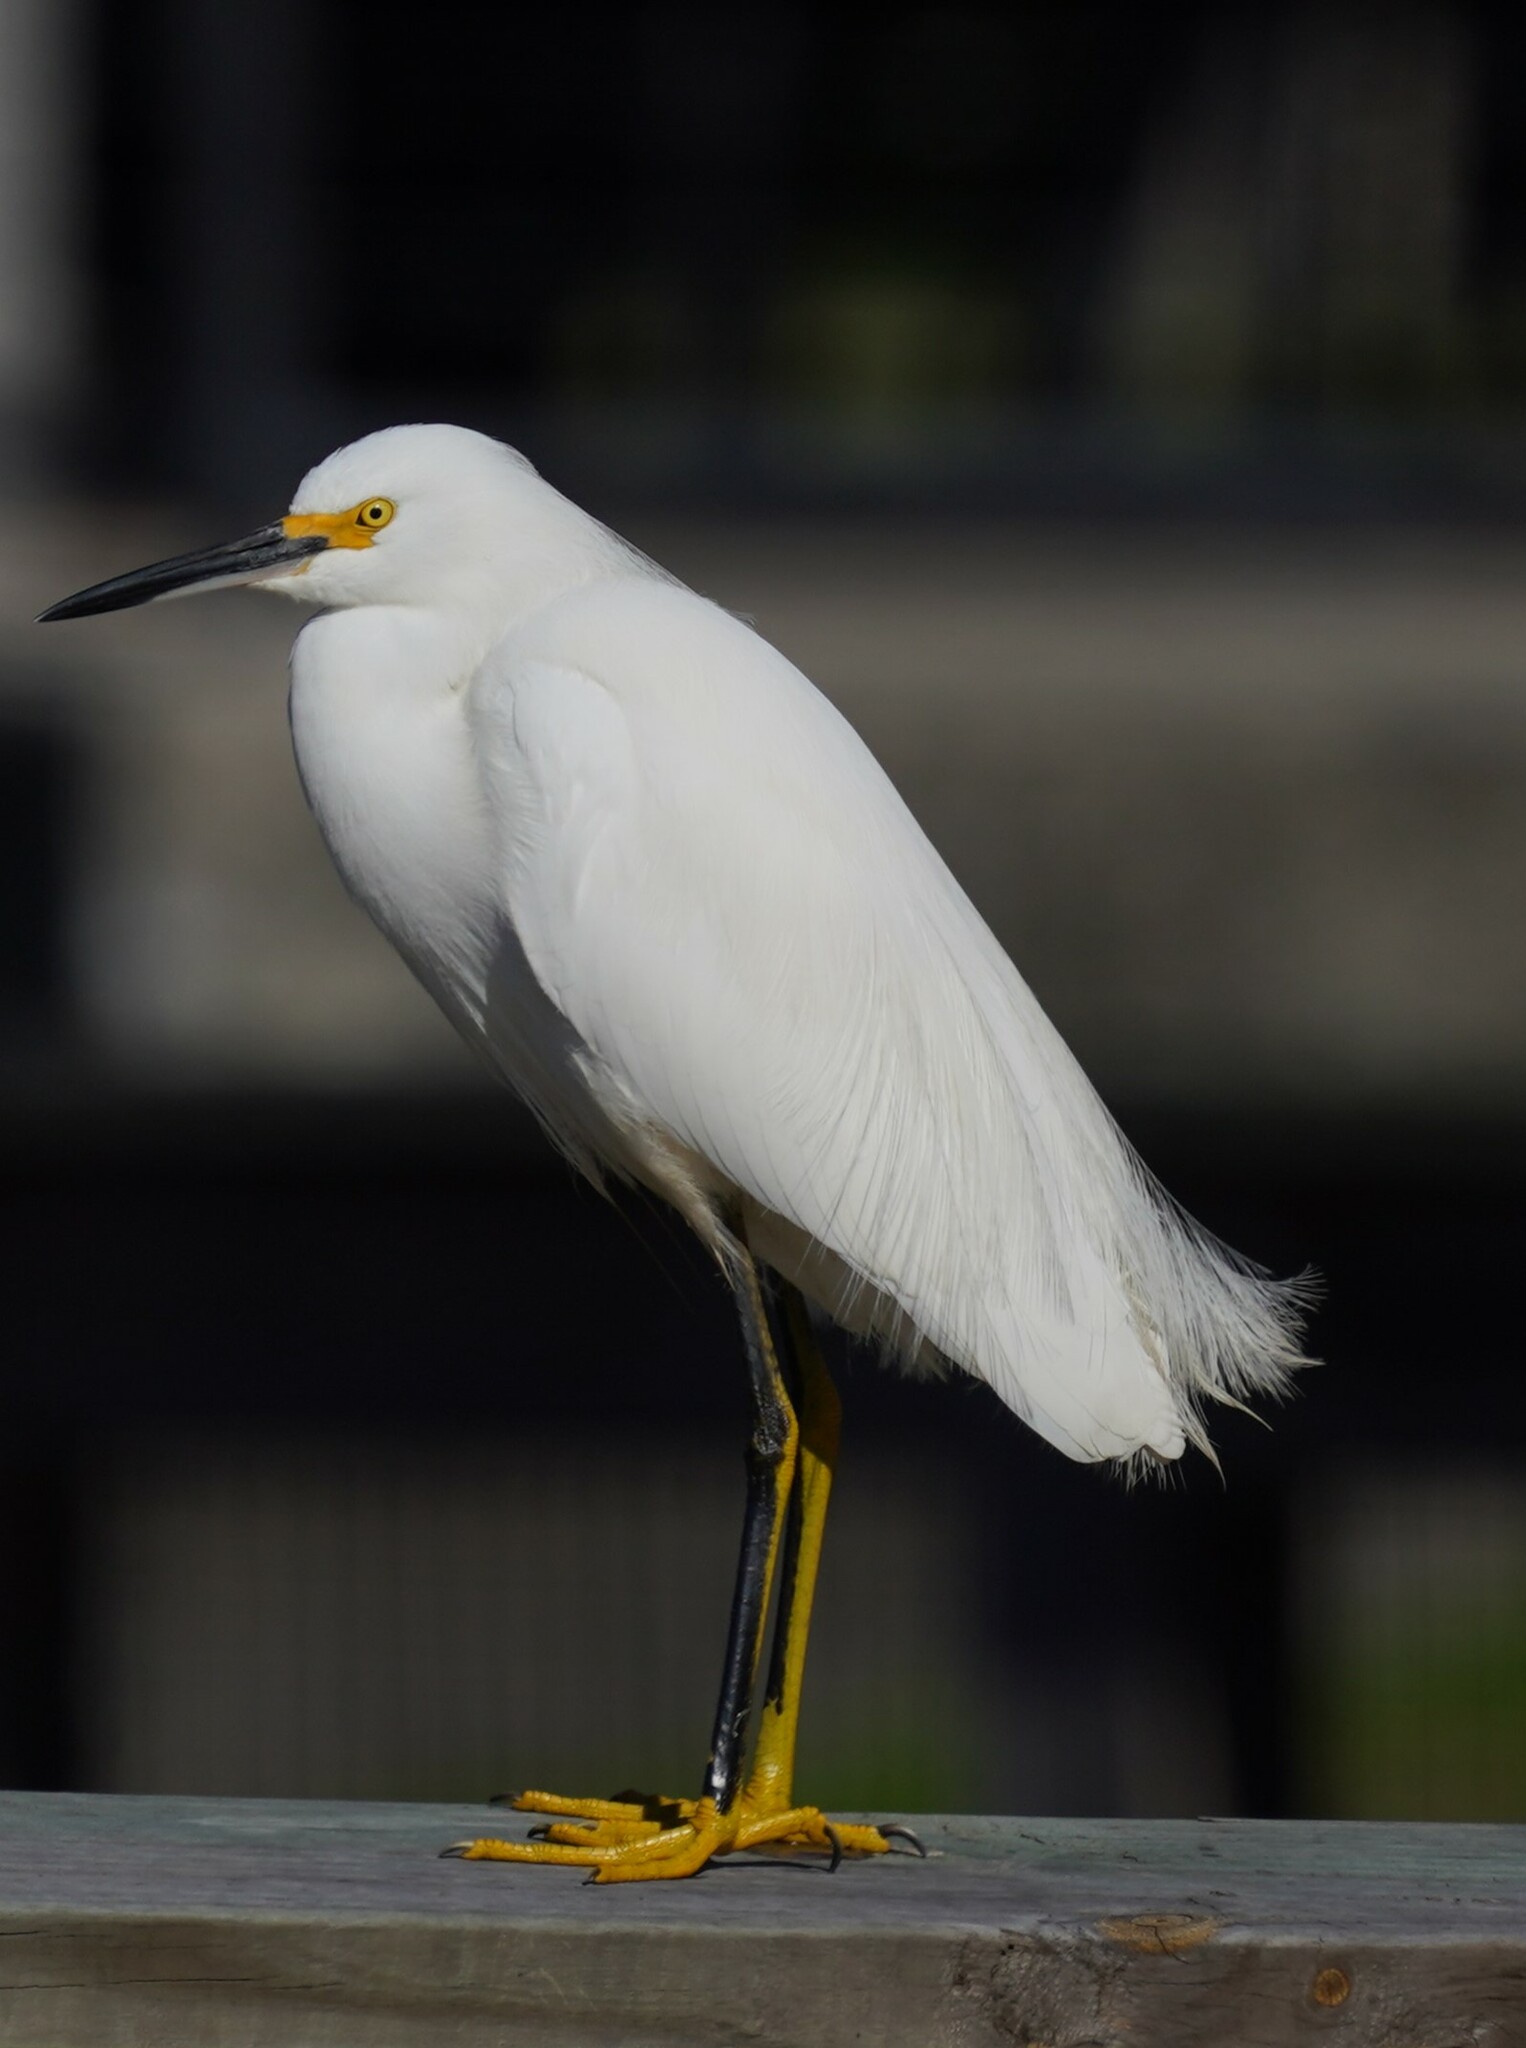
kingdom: Animalia
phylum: Chordata
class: Aves
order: Pelecaniformes
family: Ardeidae
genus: Egretta
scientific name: Egretta thula
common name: Snowy egret
